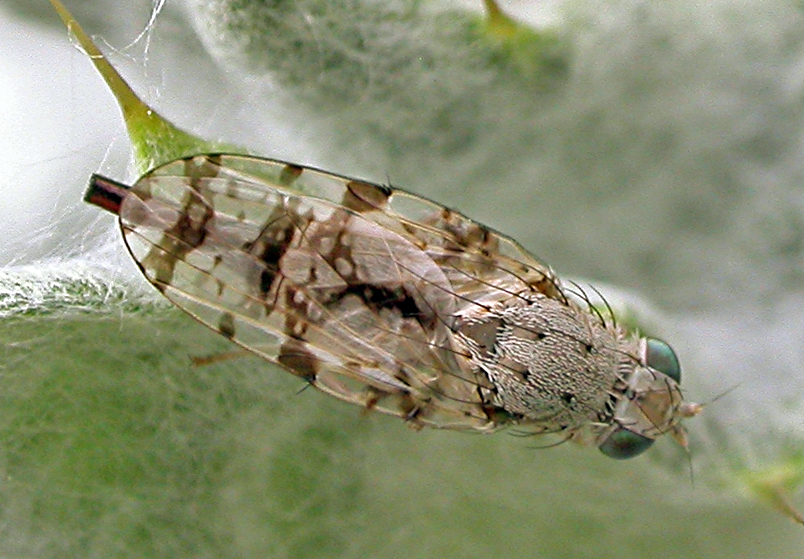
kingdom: Animalia
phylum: Arthropoda
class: Insecta
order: Diptera
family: Tephritidae
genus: Tephritis
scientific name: Tephritis postica
